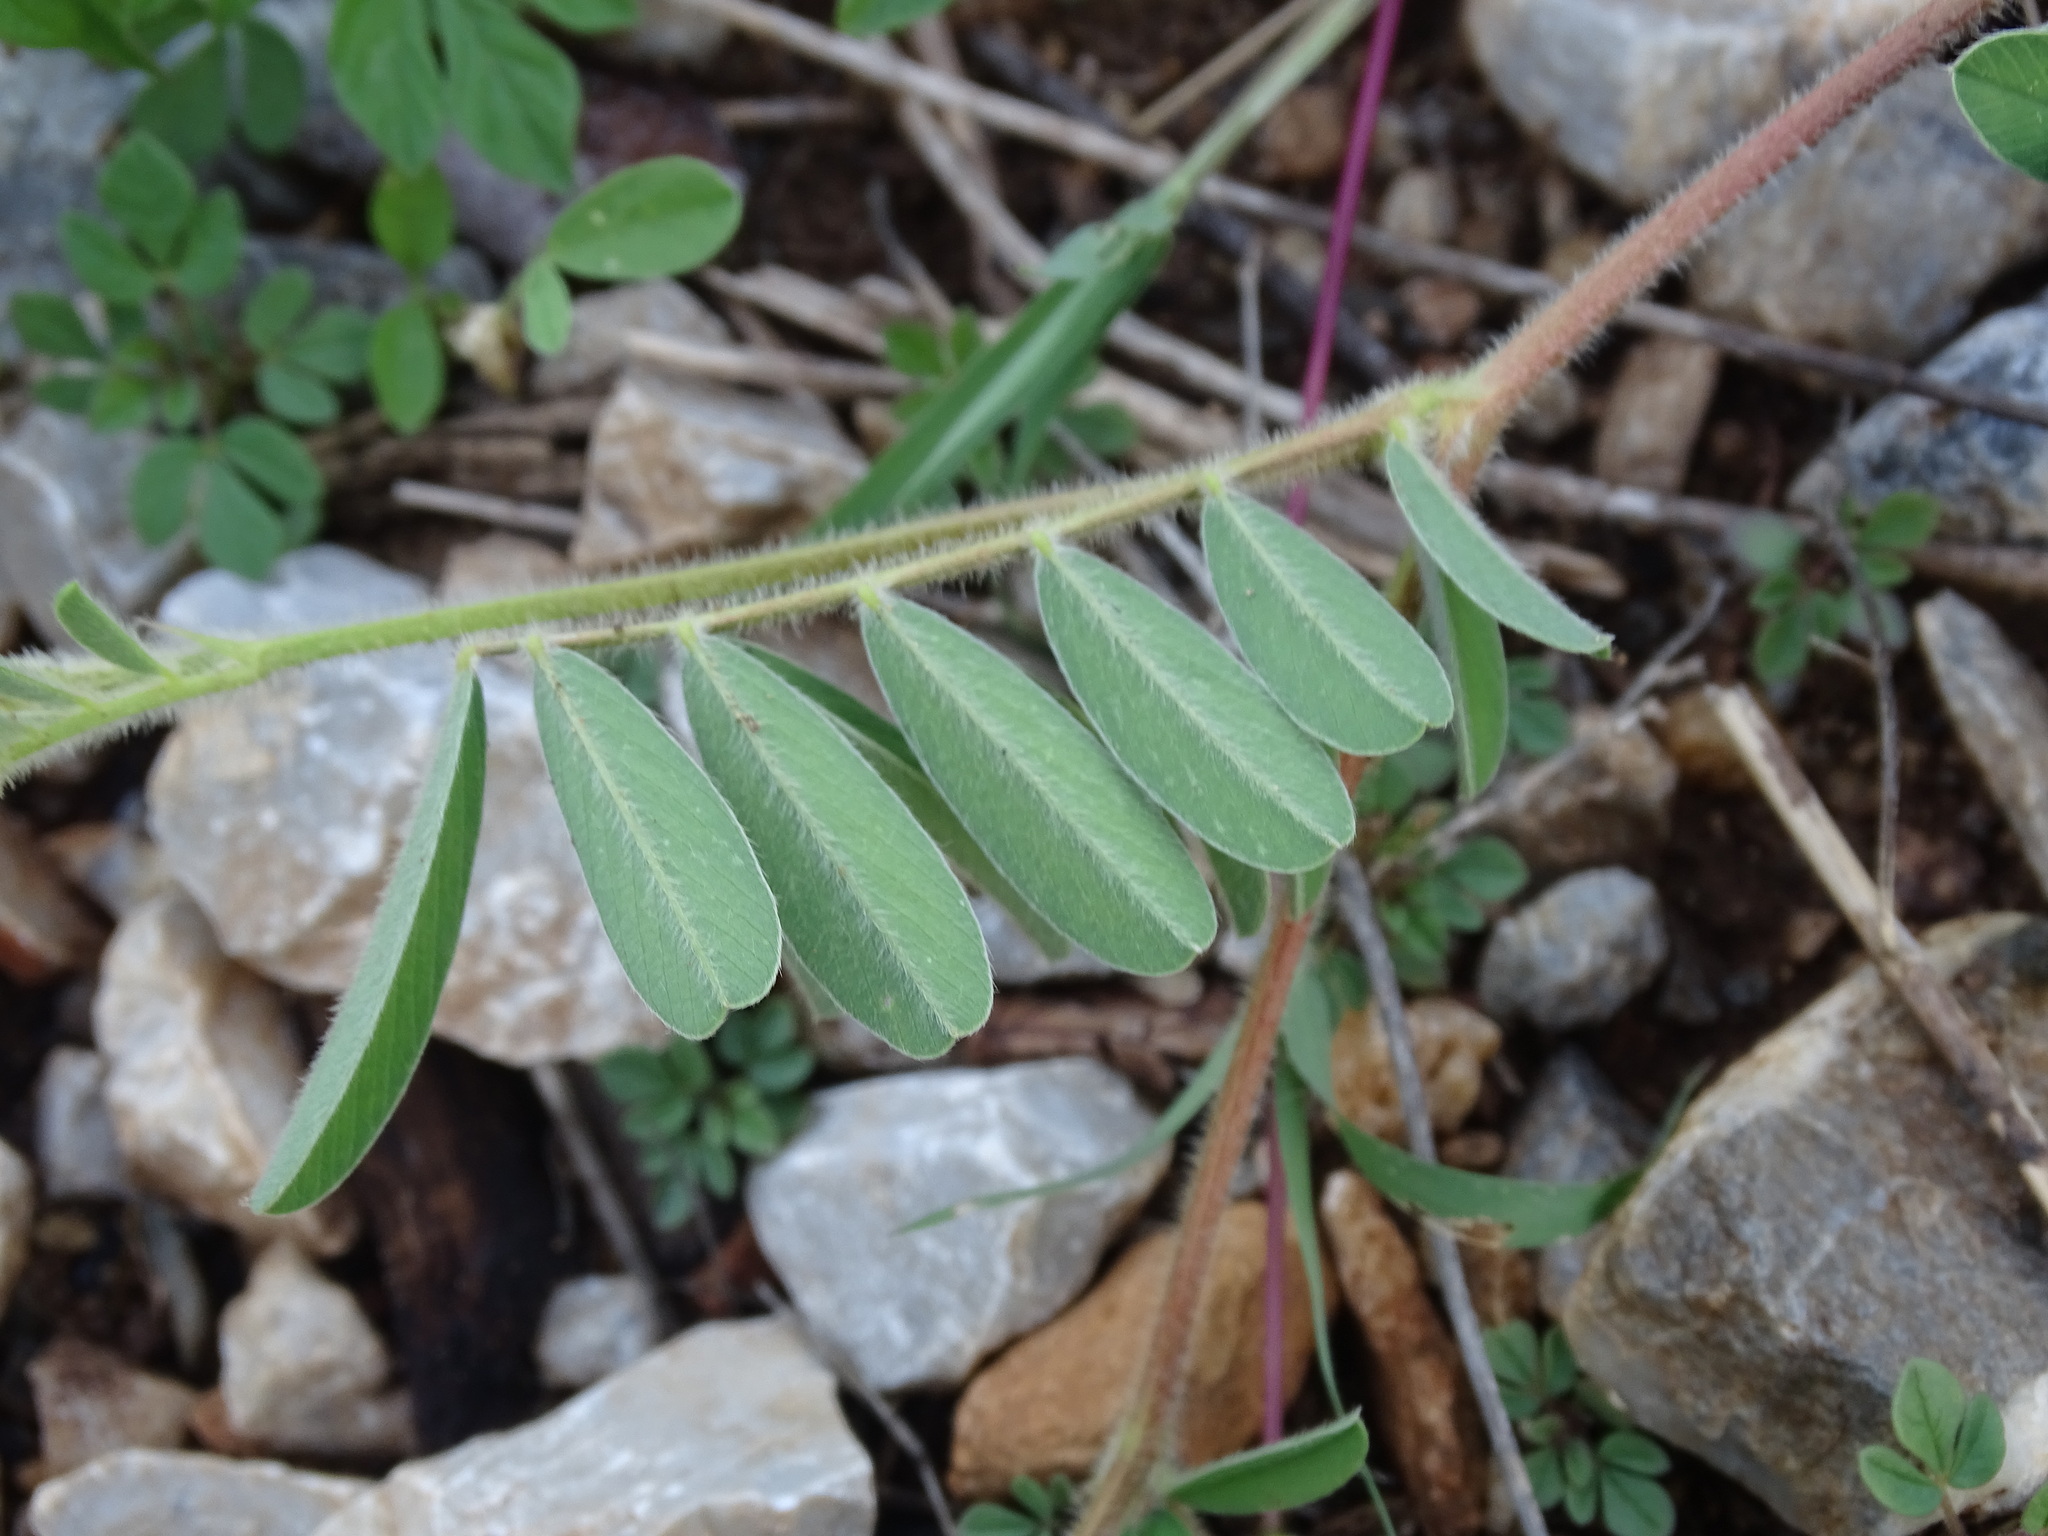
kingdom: Plantae
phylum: Tracheophyta
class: Magnoliopsida
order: Fabales
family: Fabaceae
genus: Tephrosia
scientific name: Tephrosia cinerea
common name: Ashen hoarypea
